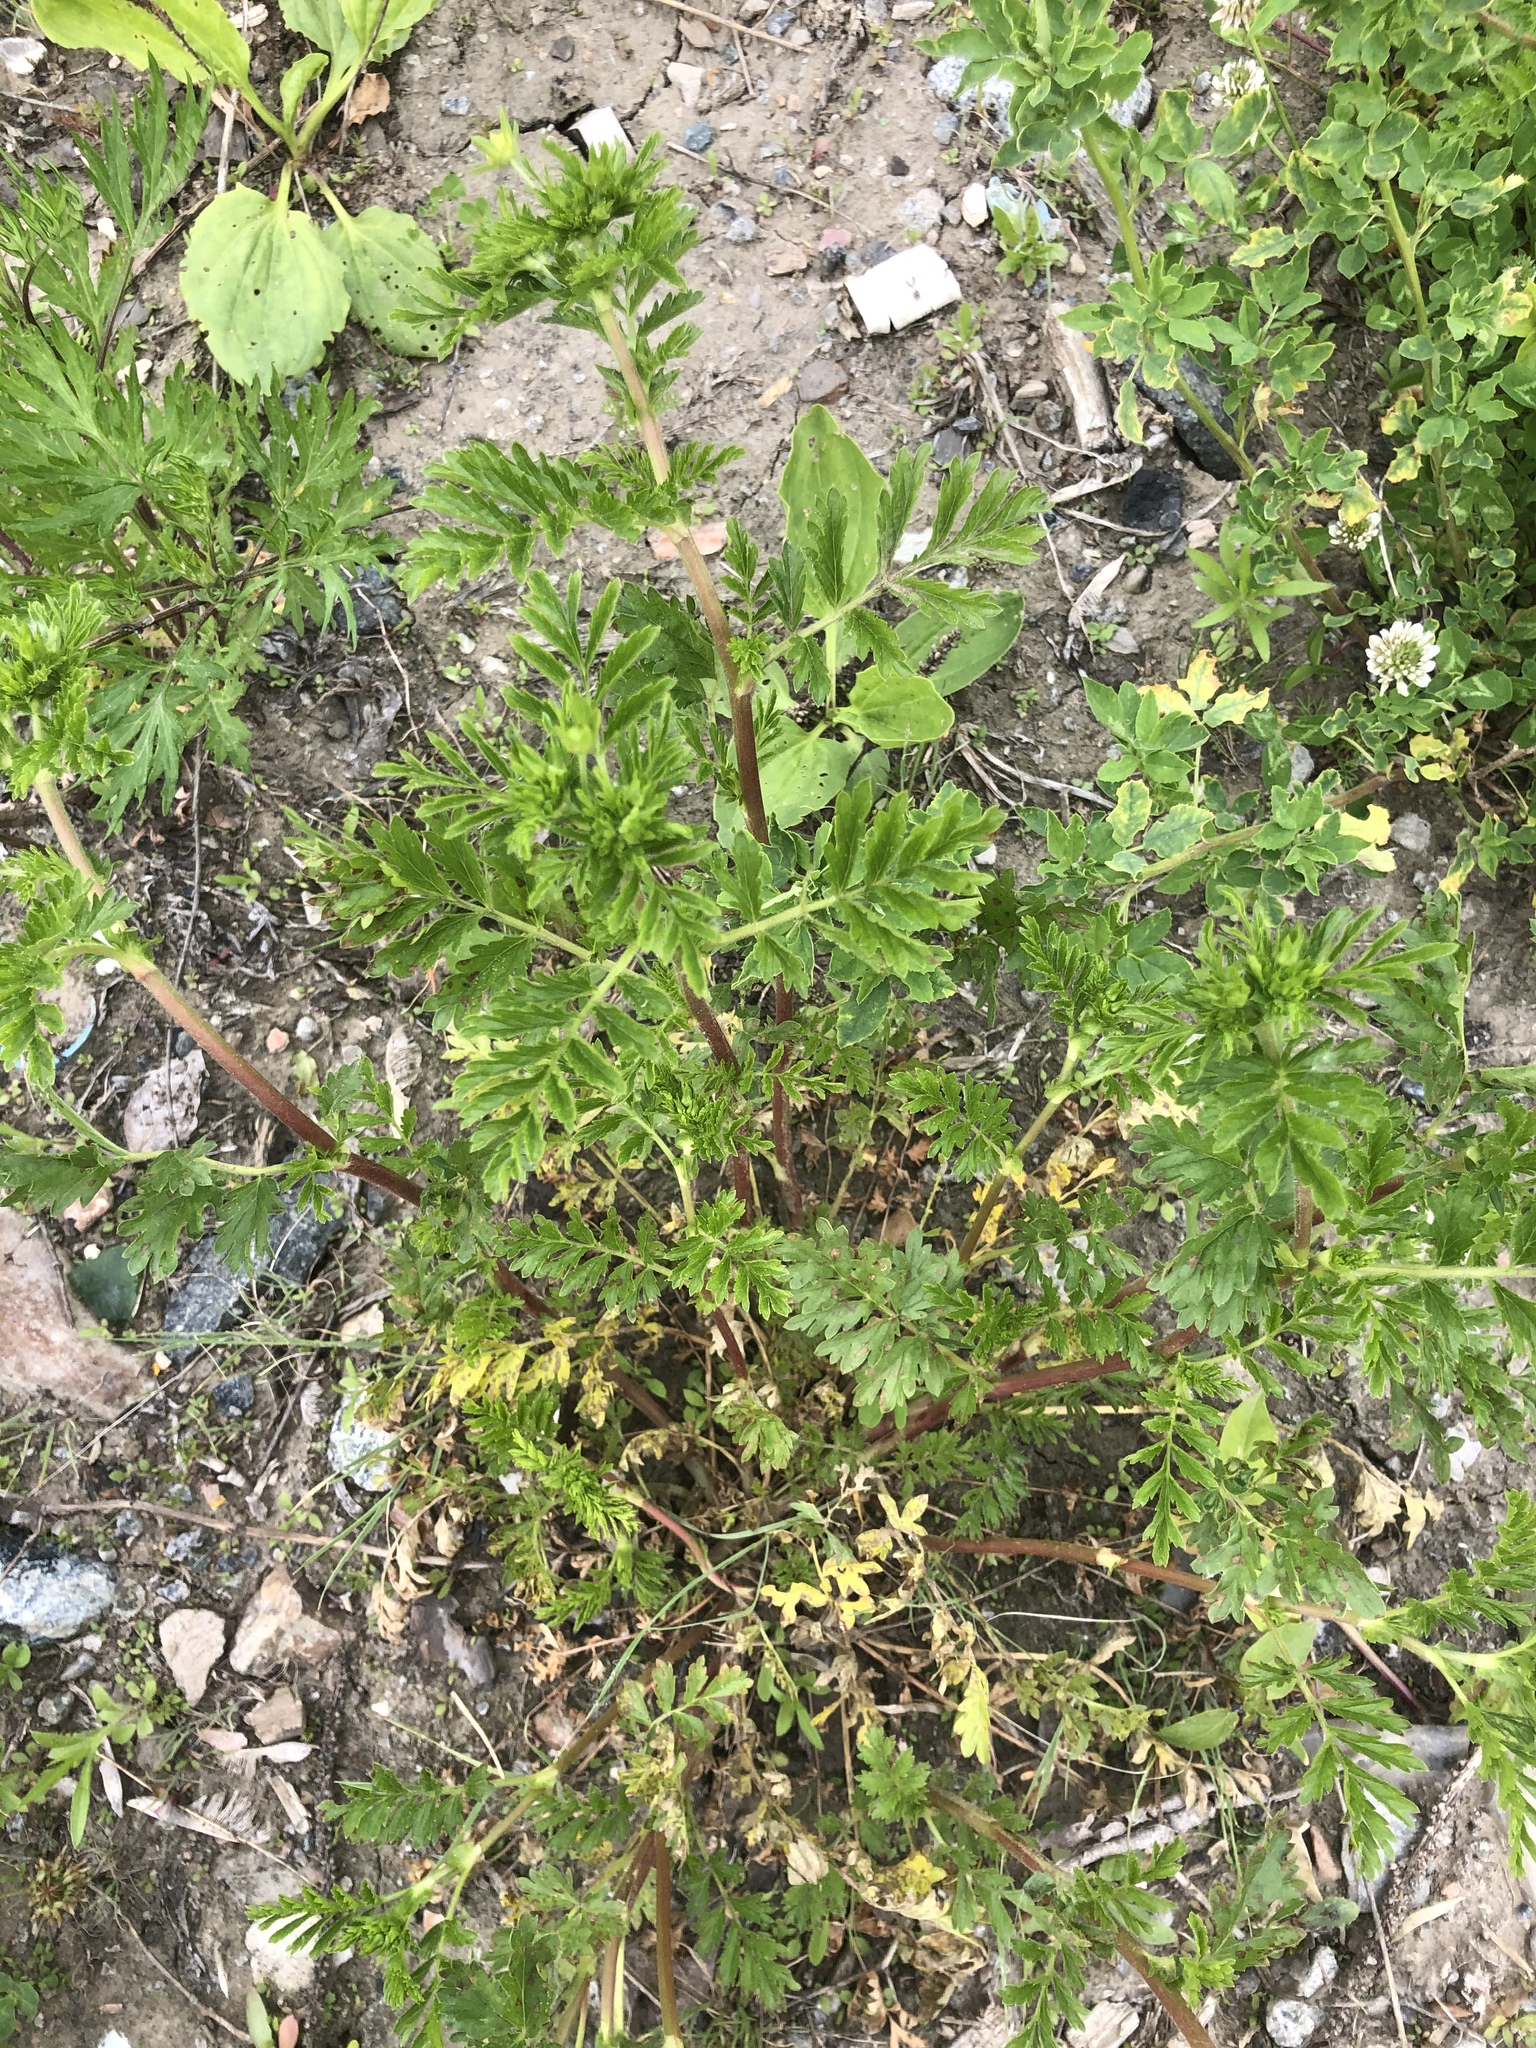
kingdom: Plantae
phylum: Tracheophyta
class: Magnoliopsida
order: Rosales
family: Rosaceae
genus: Potentilla
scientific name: Potentilla supina
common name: Prostrate cinquefoil
